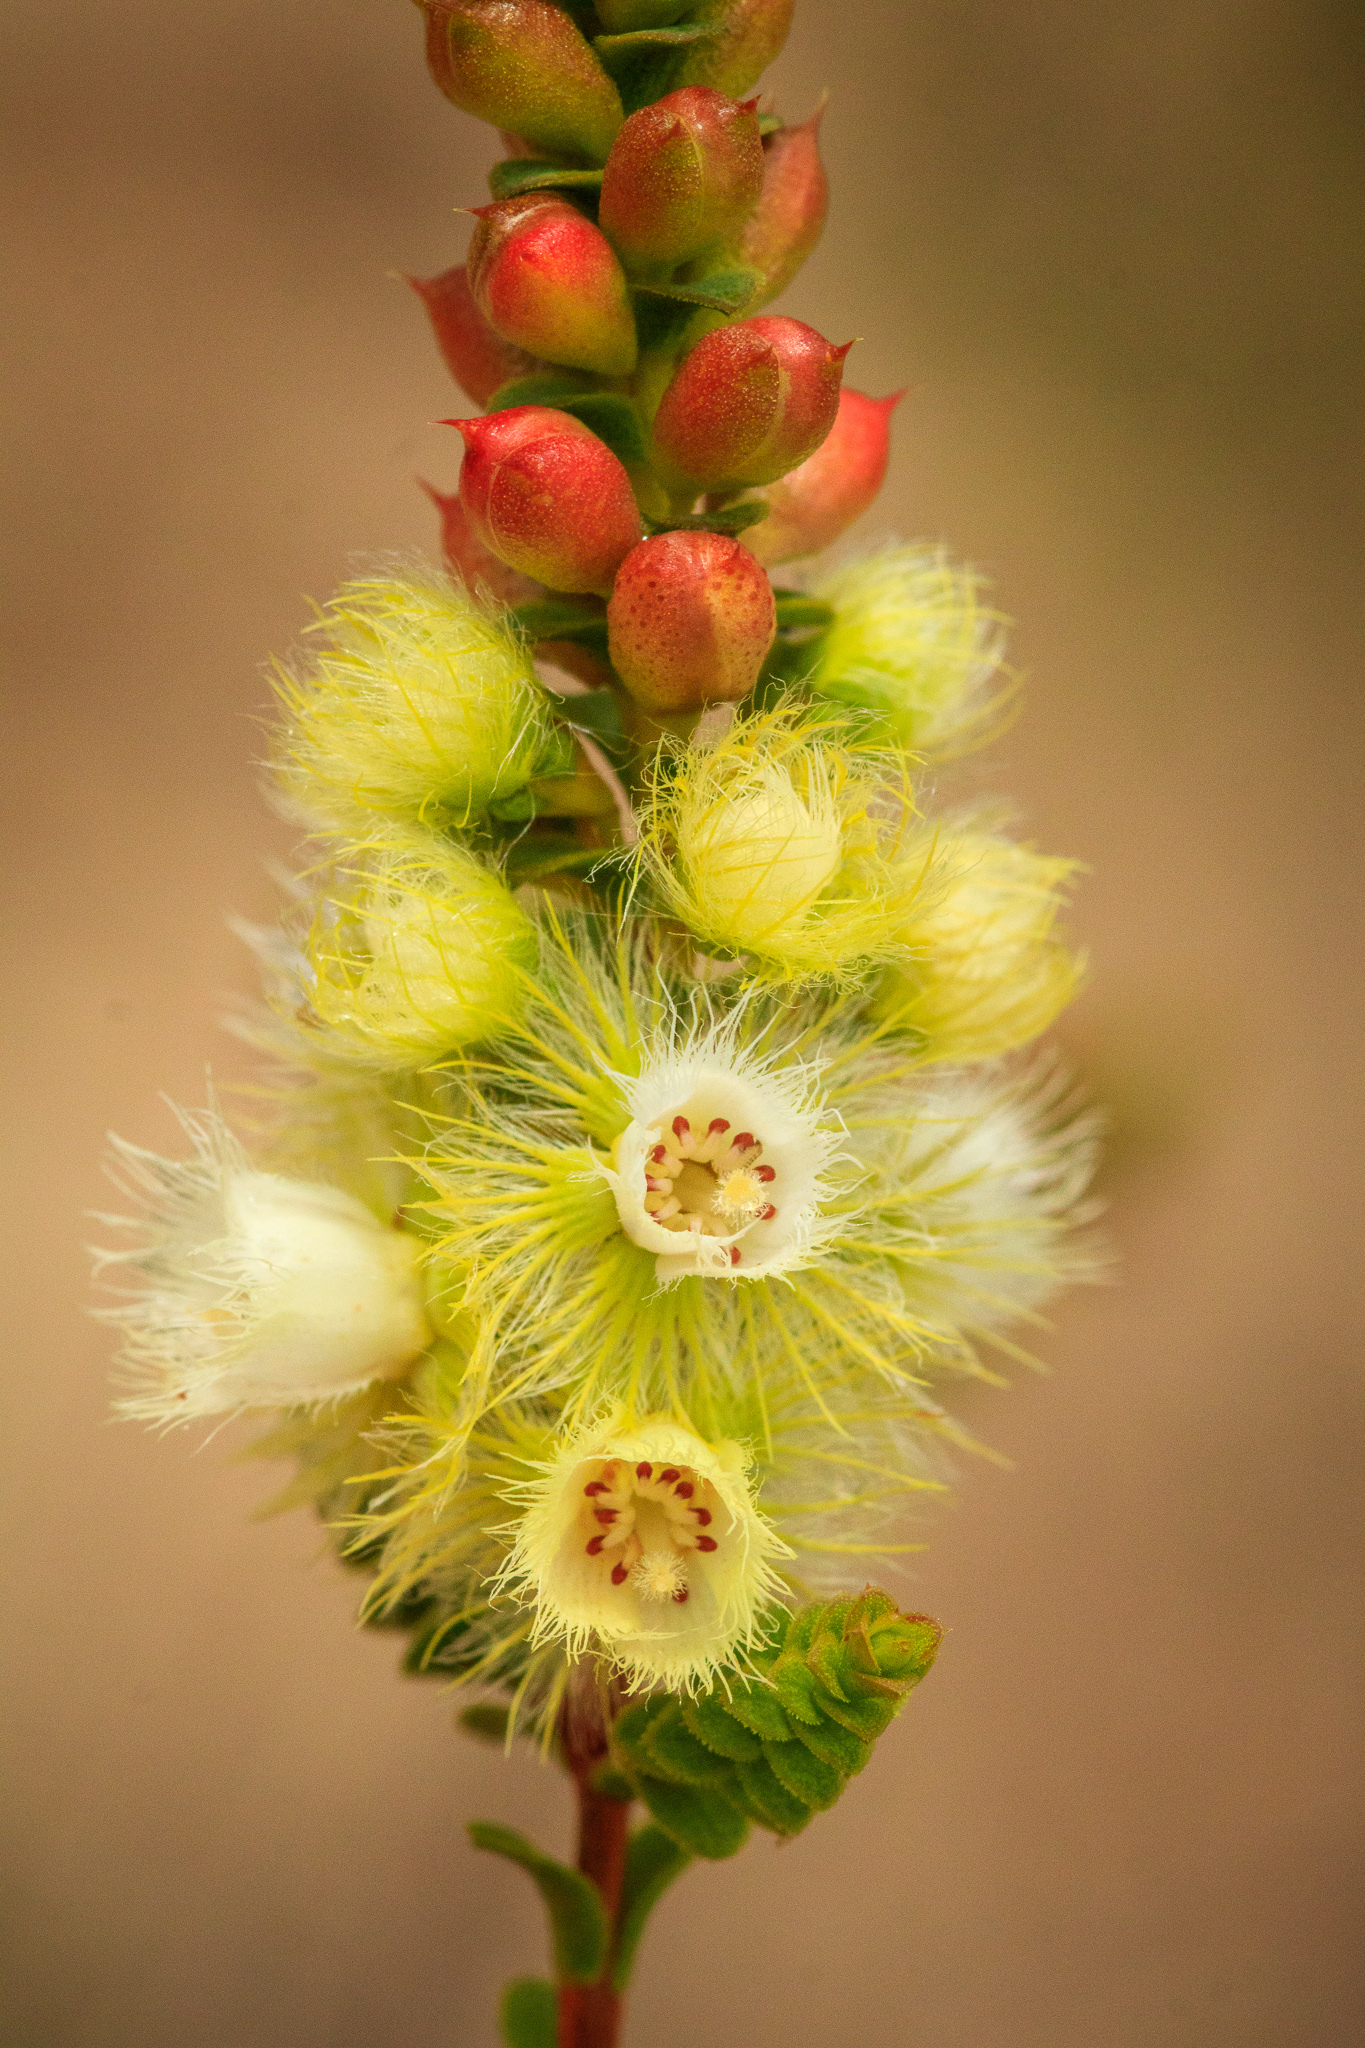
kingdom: Plantae
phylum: Tracheophyta
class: Magnoliopsida
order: Myrtales
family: Myrtaceae
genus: Verticordia
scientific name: Verticordia luteola
